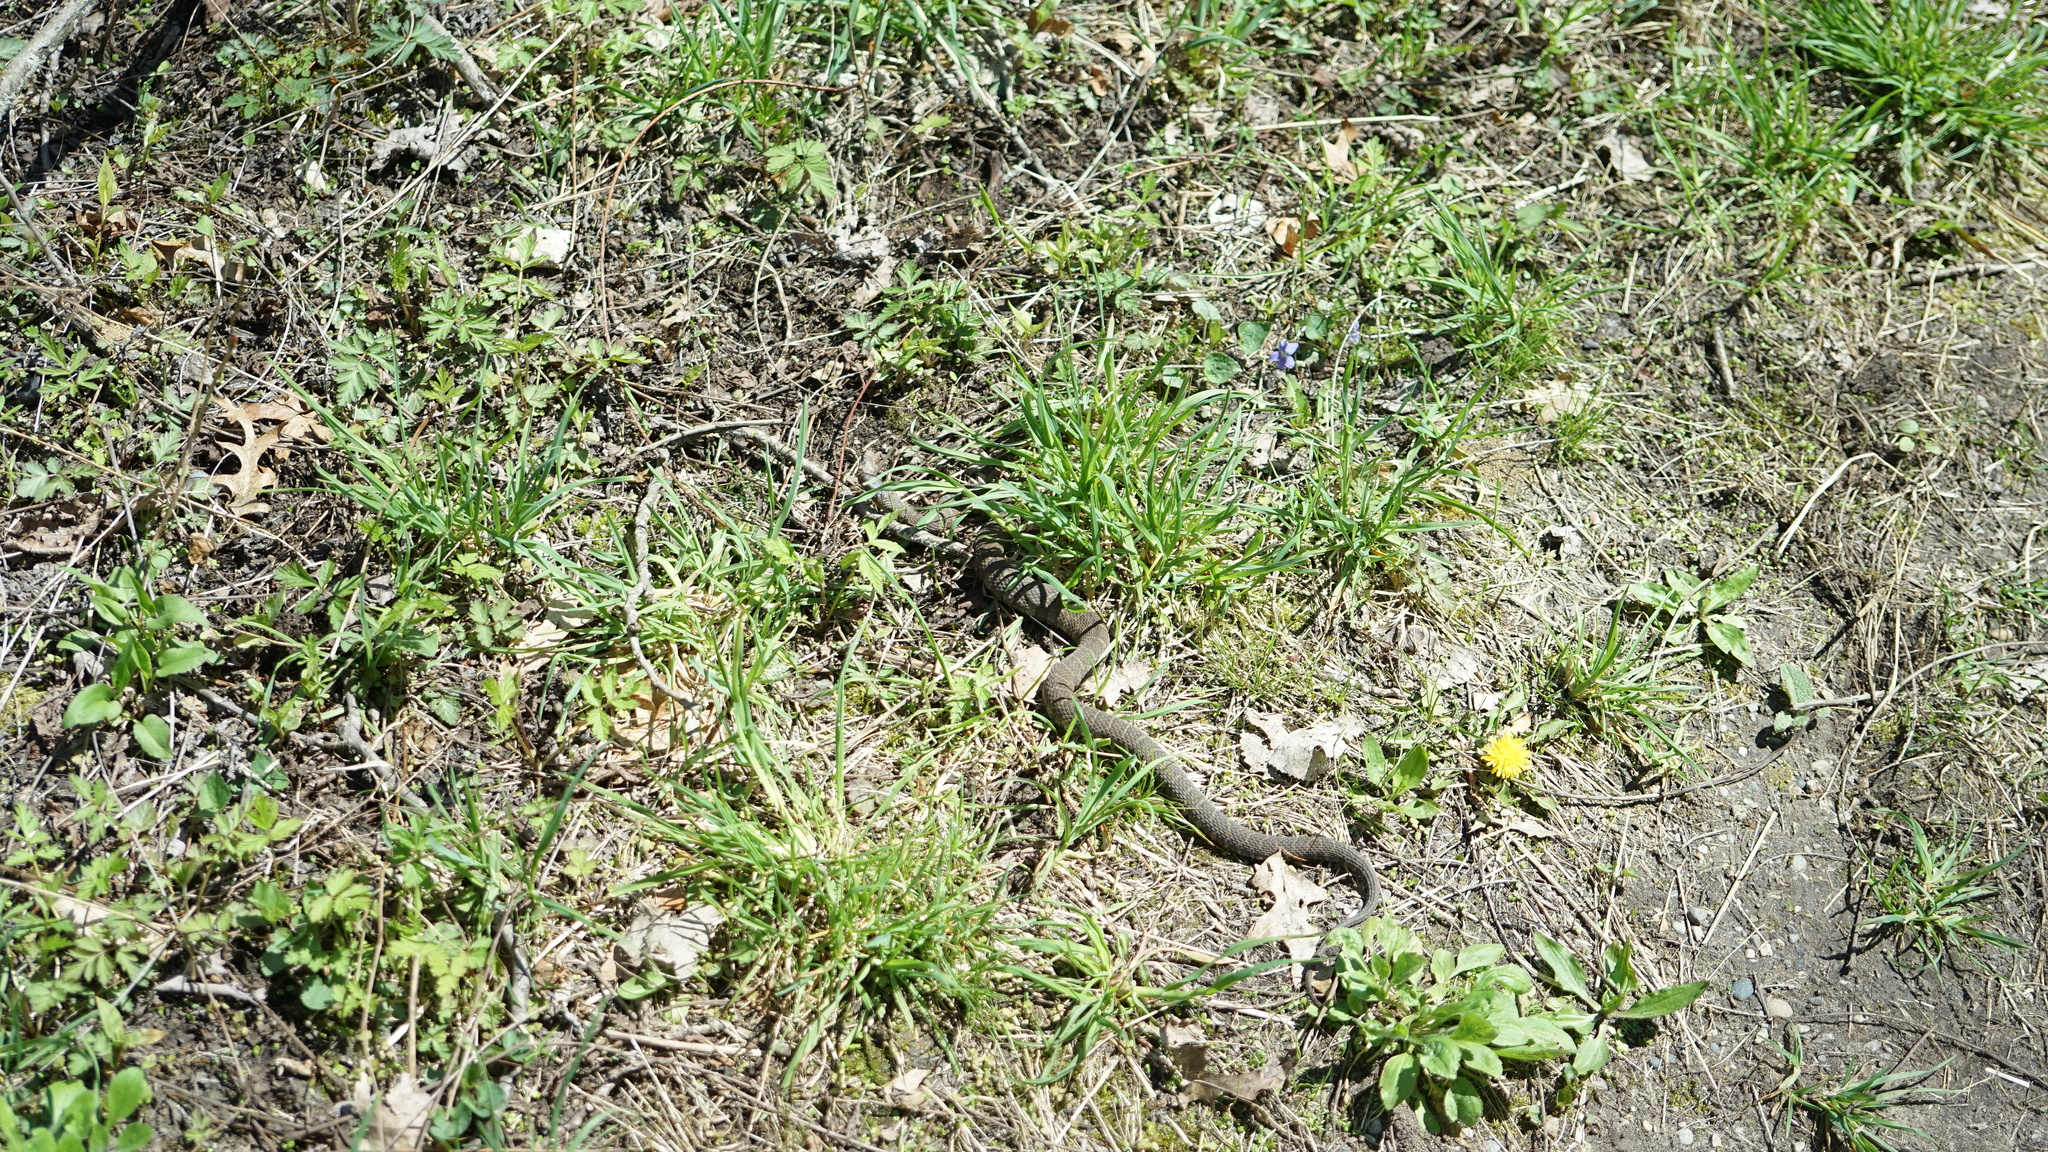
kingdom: Animalia
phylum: Chordata
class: Squamata
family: Colubridae
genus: Nerodia
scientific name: Nerodia sipedon
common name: Northern water snake
